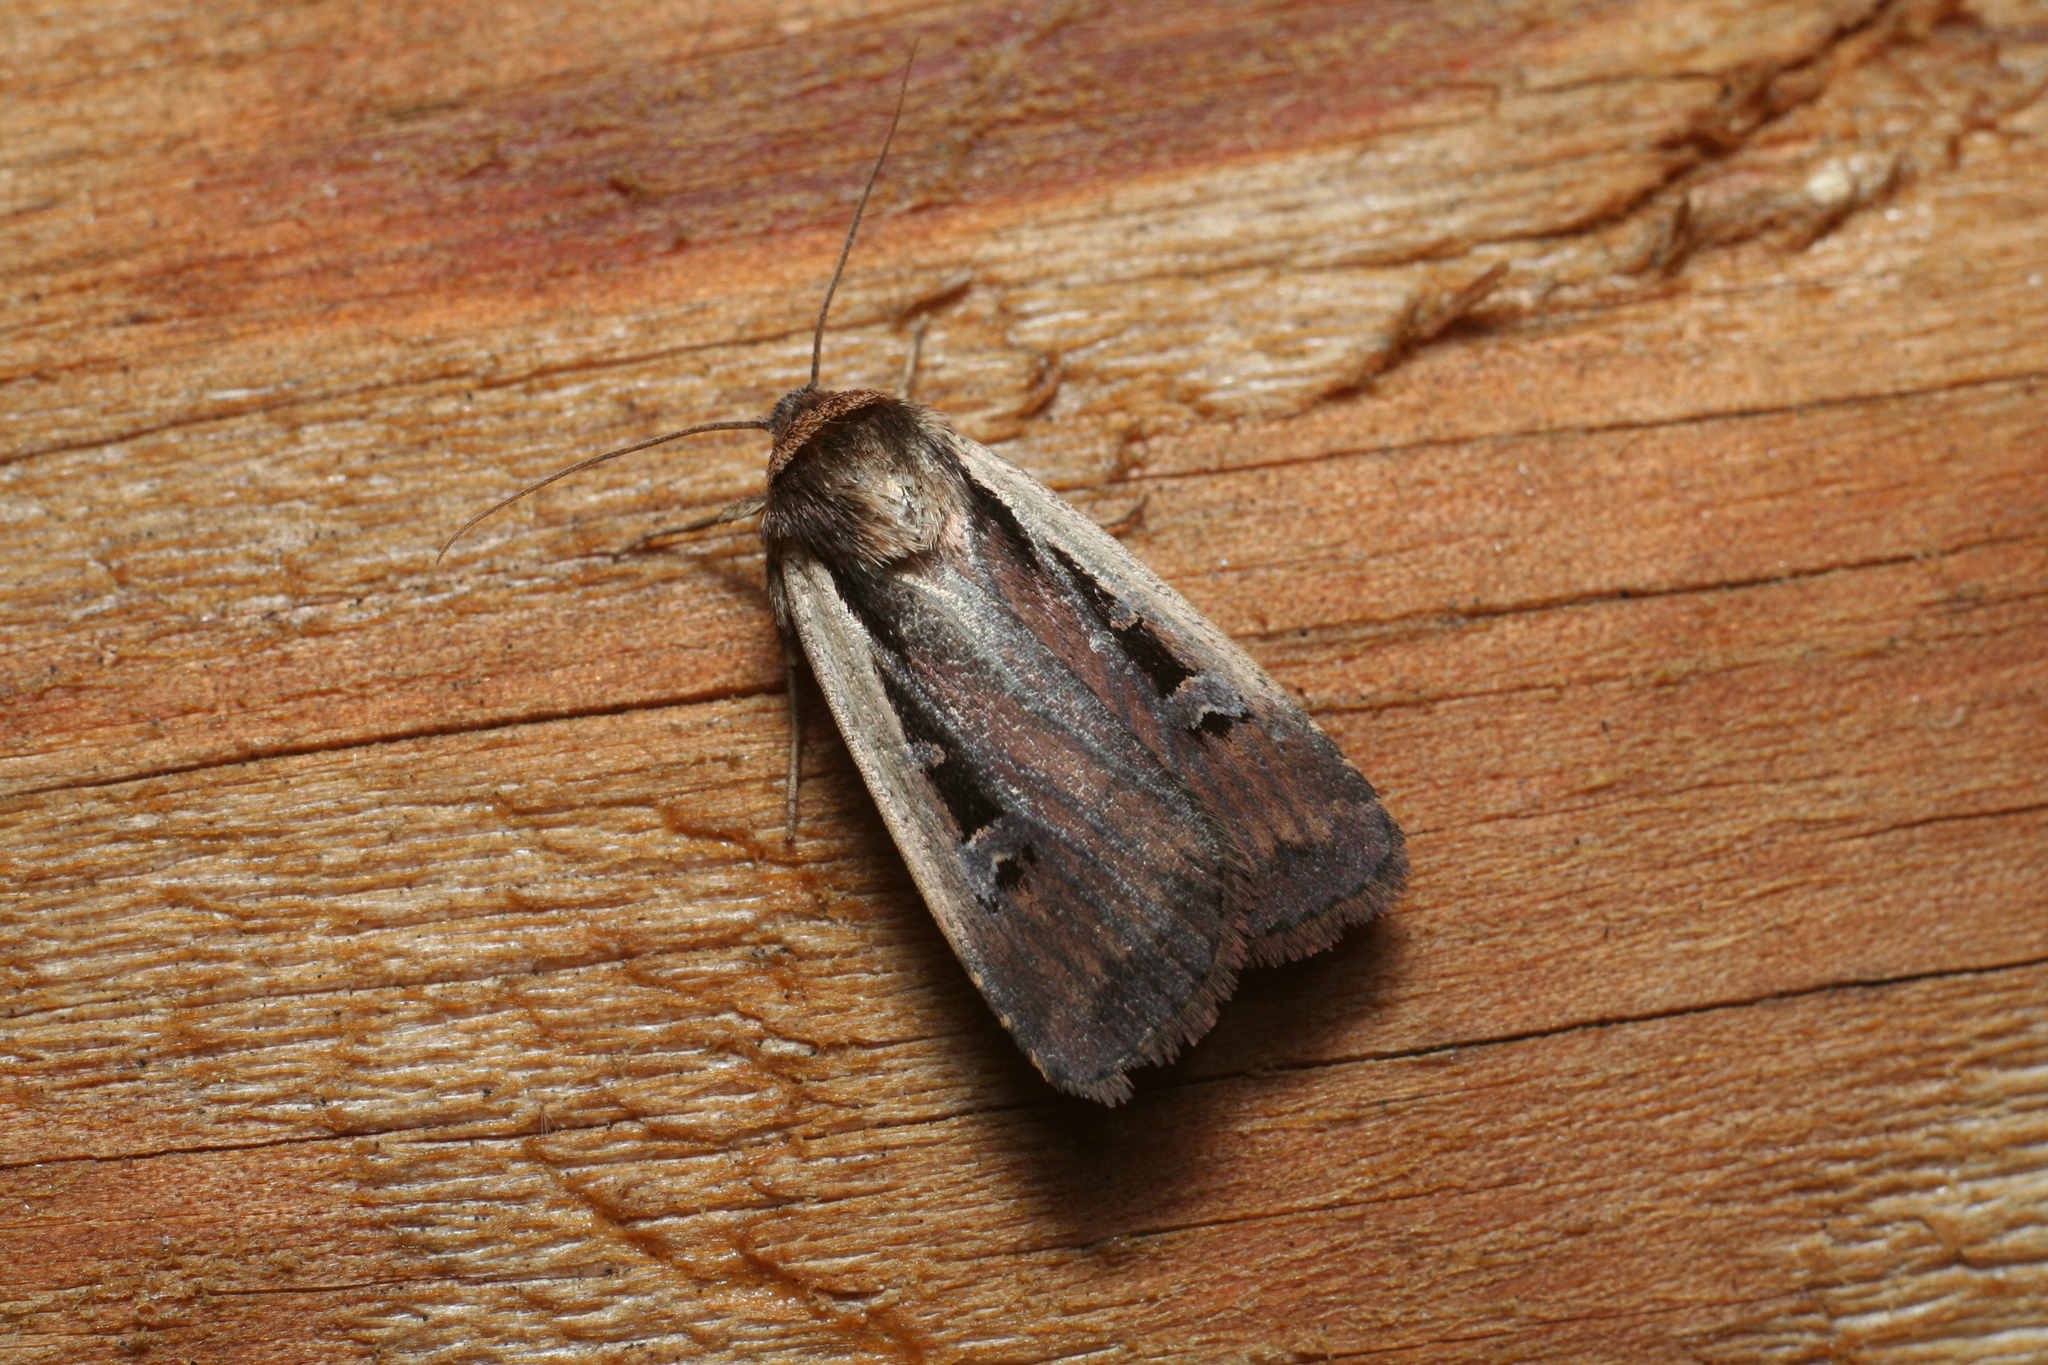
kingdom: Animalia
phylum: Arthropoda
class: Insecta
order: Lepidoptera
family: Noctuidae
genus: Ochropleura
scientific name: Ochropleura plecta
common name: Flame shoulder
